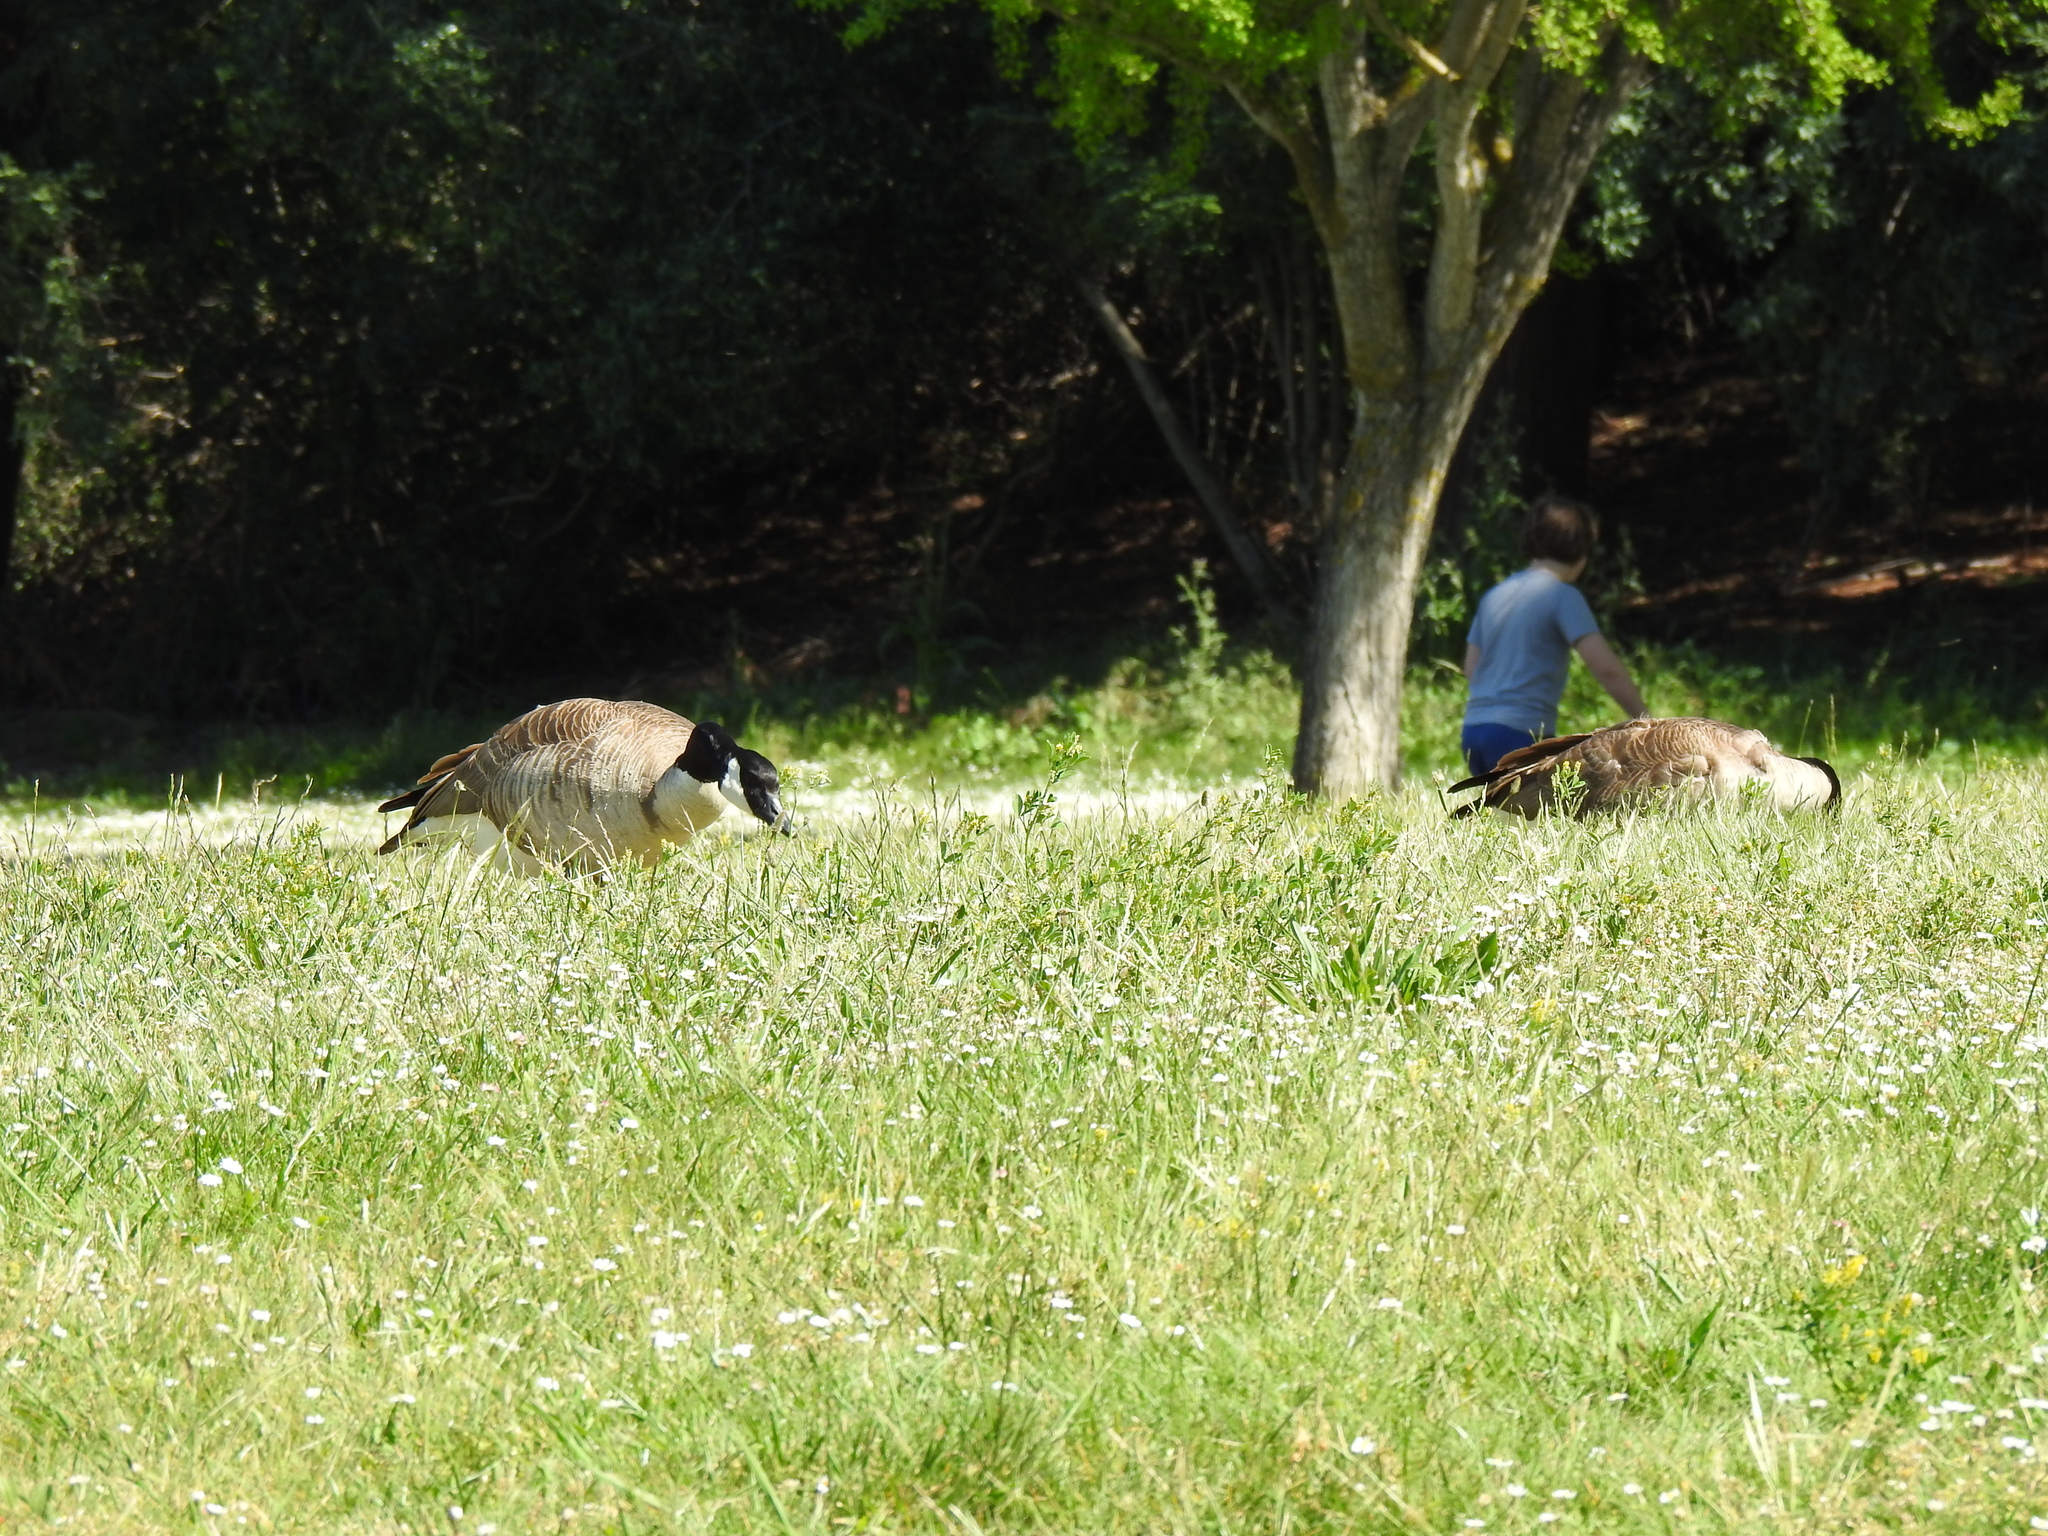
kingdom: Animalia
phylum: Chordata
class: Aves
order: Anseriformes
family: Anatidae
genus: Branta
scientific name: Branta canadensis
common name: Canada goose
